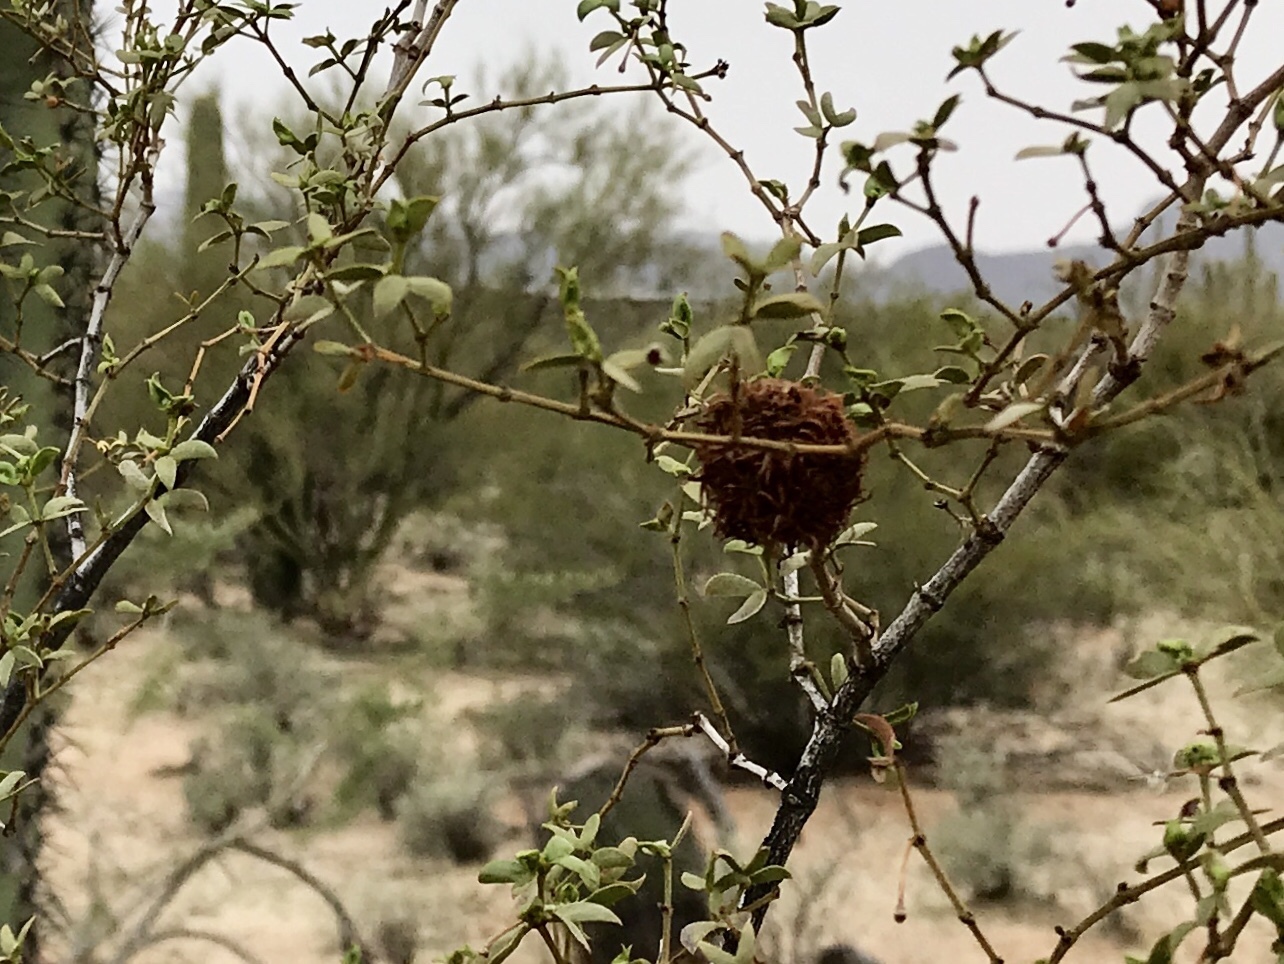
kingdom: Animalia
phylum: Arthropoda
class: Insecta
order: Diptera
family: Cecidomyiidae
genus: Asphondylia
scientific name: Asphondylia auripila
